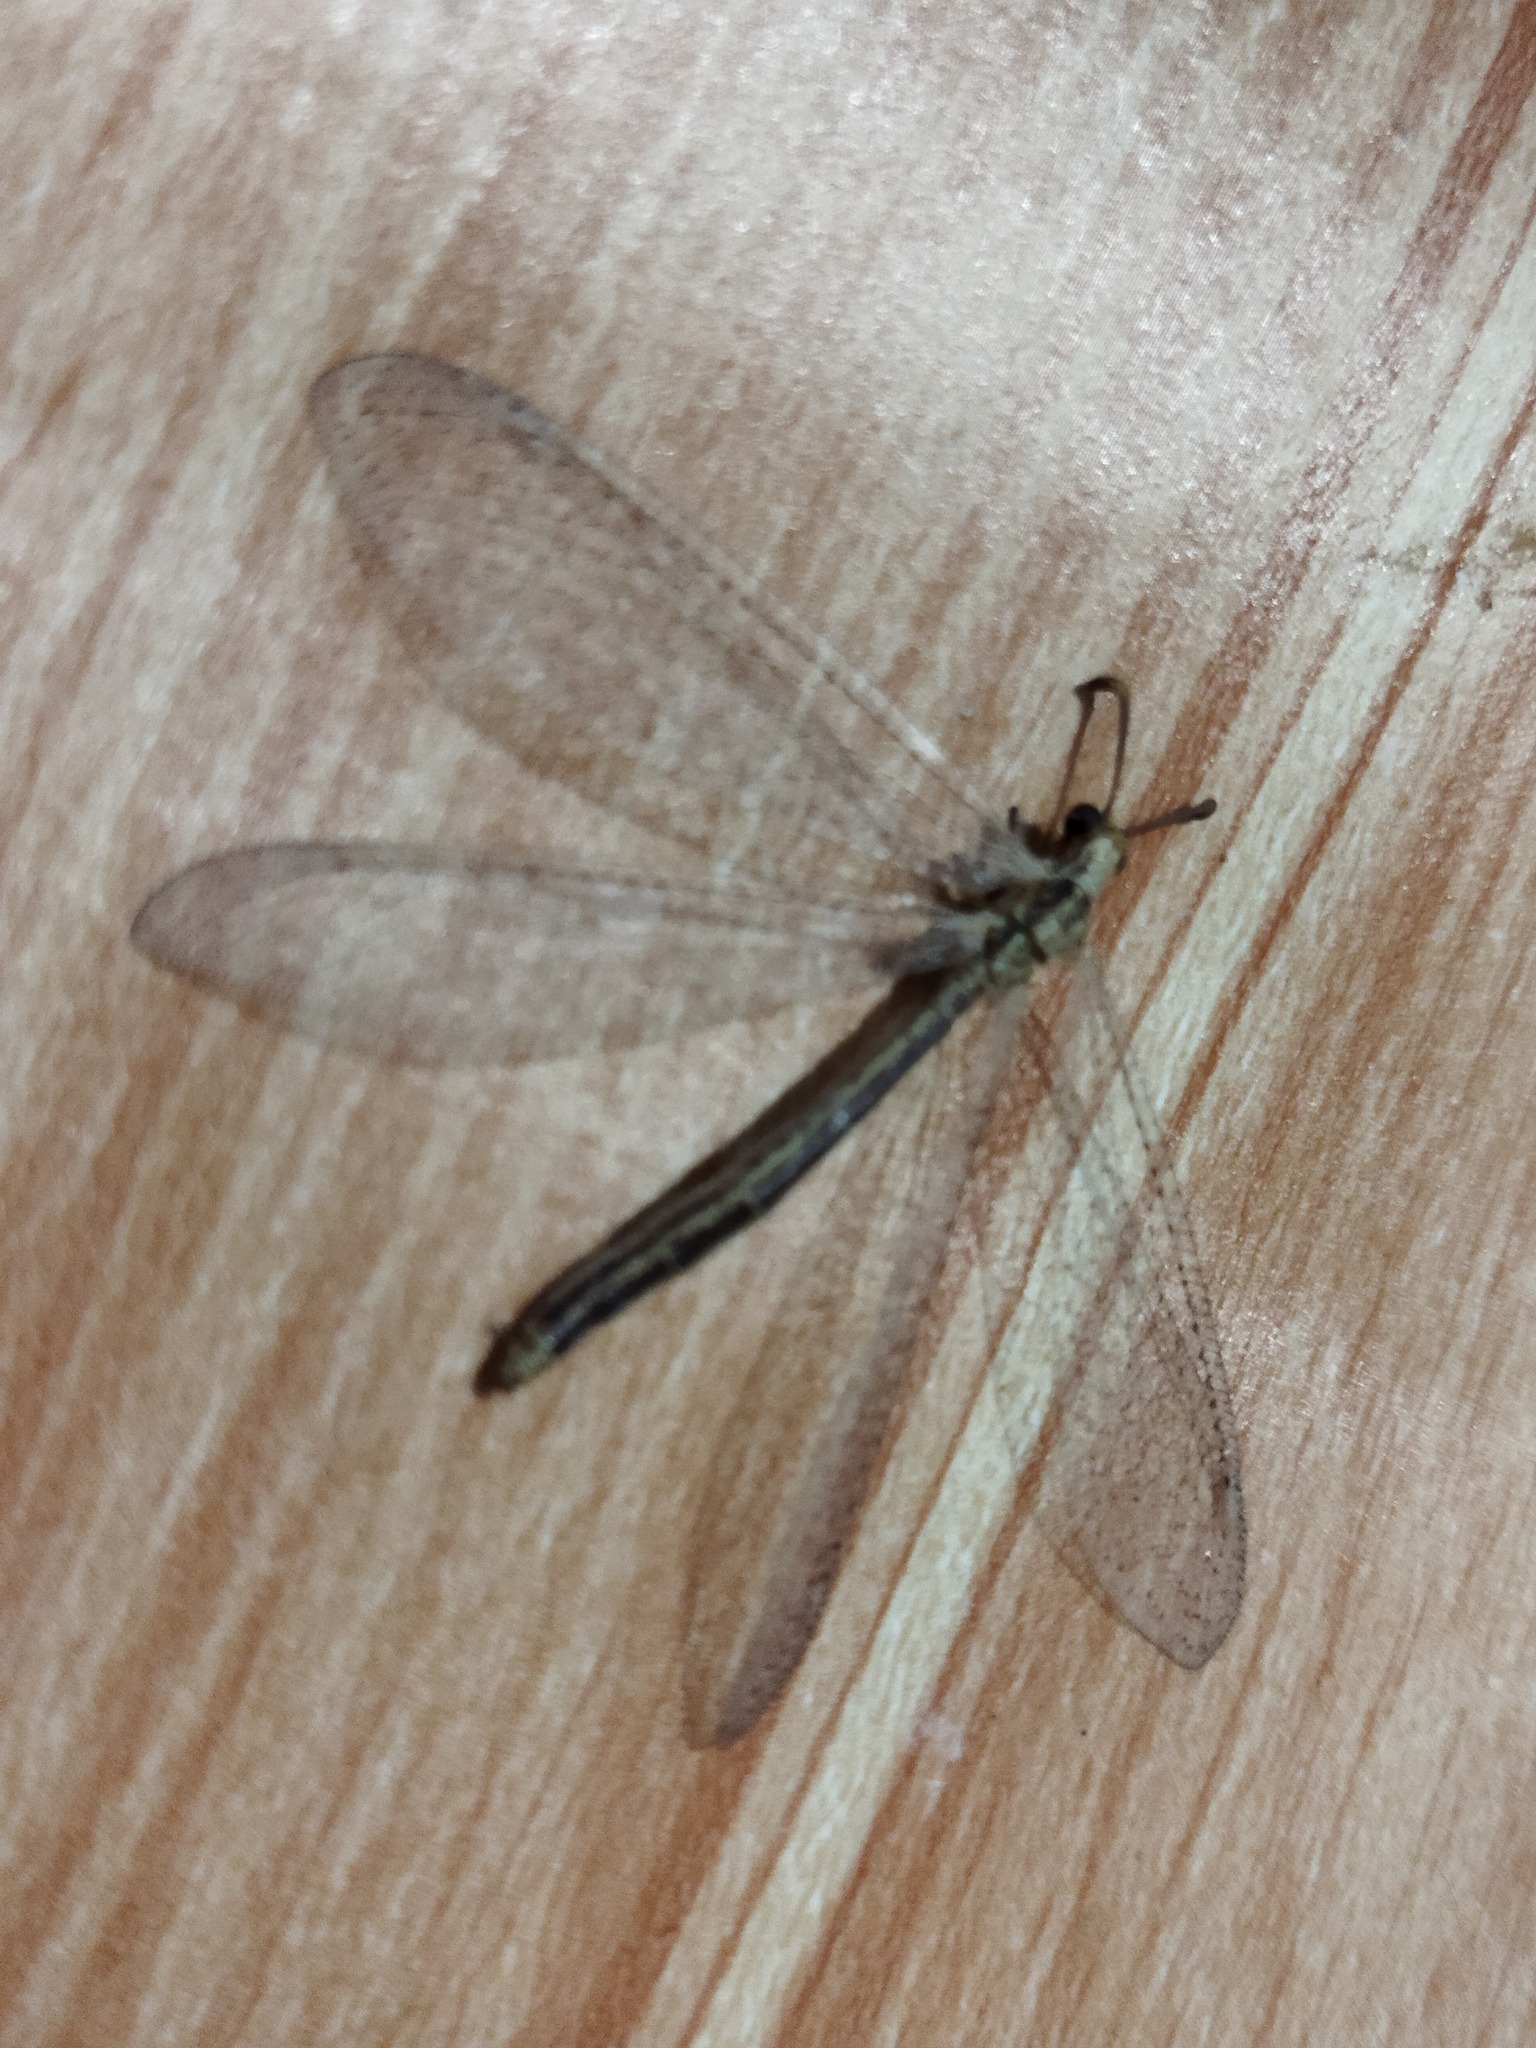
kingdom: Animalia
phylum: Arthropoda
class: Insecta
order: Neuroptera
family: Myrmeleontidae
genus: Macronemurus
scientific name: Macronemurus bilineatus
